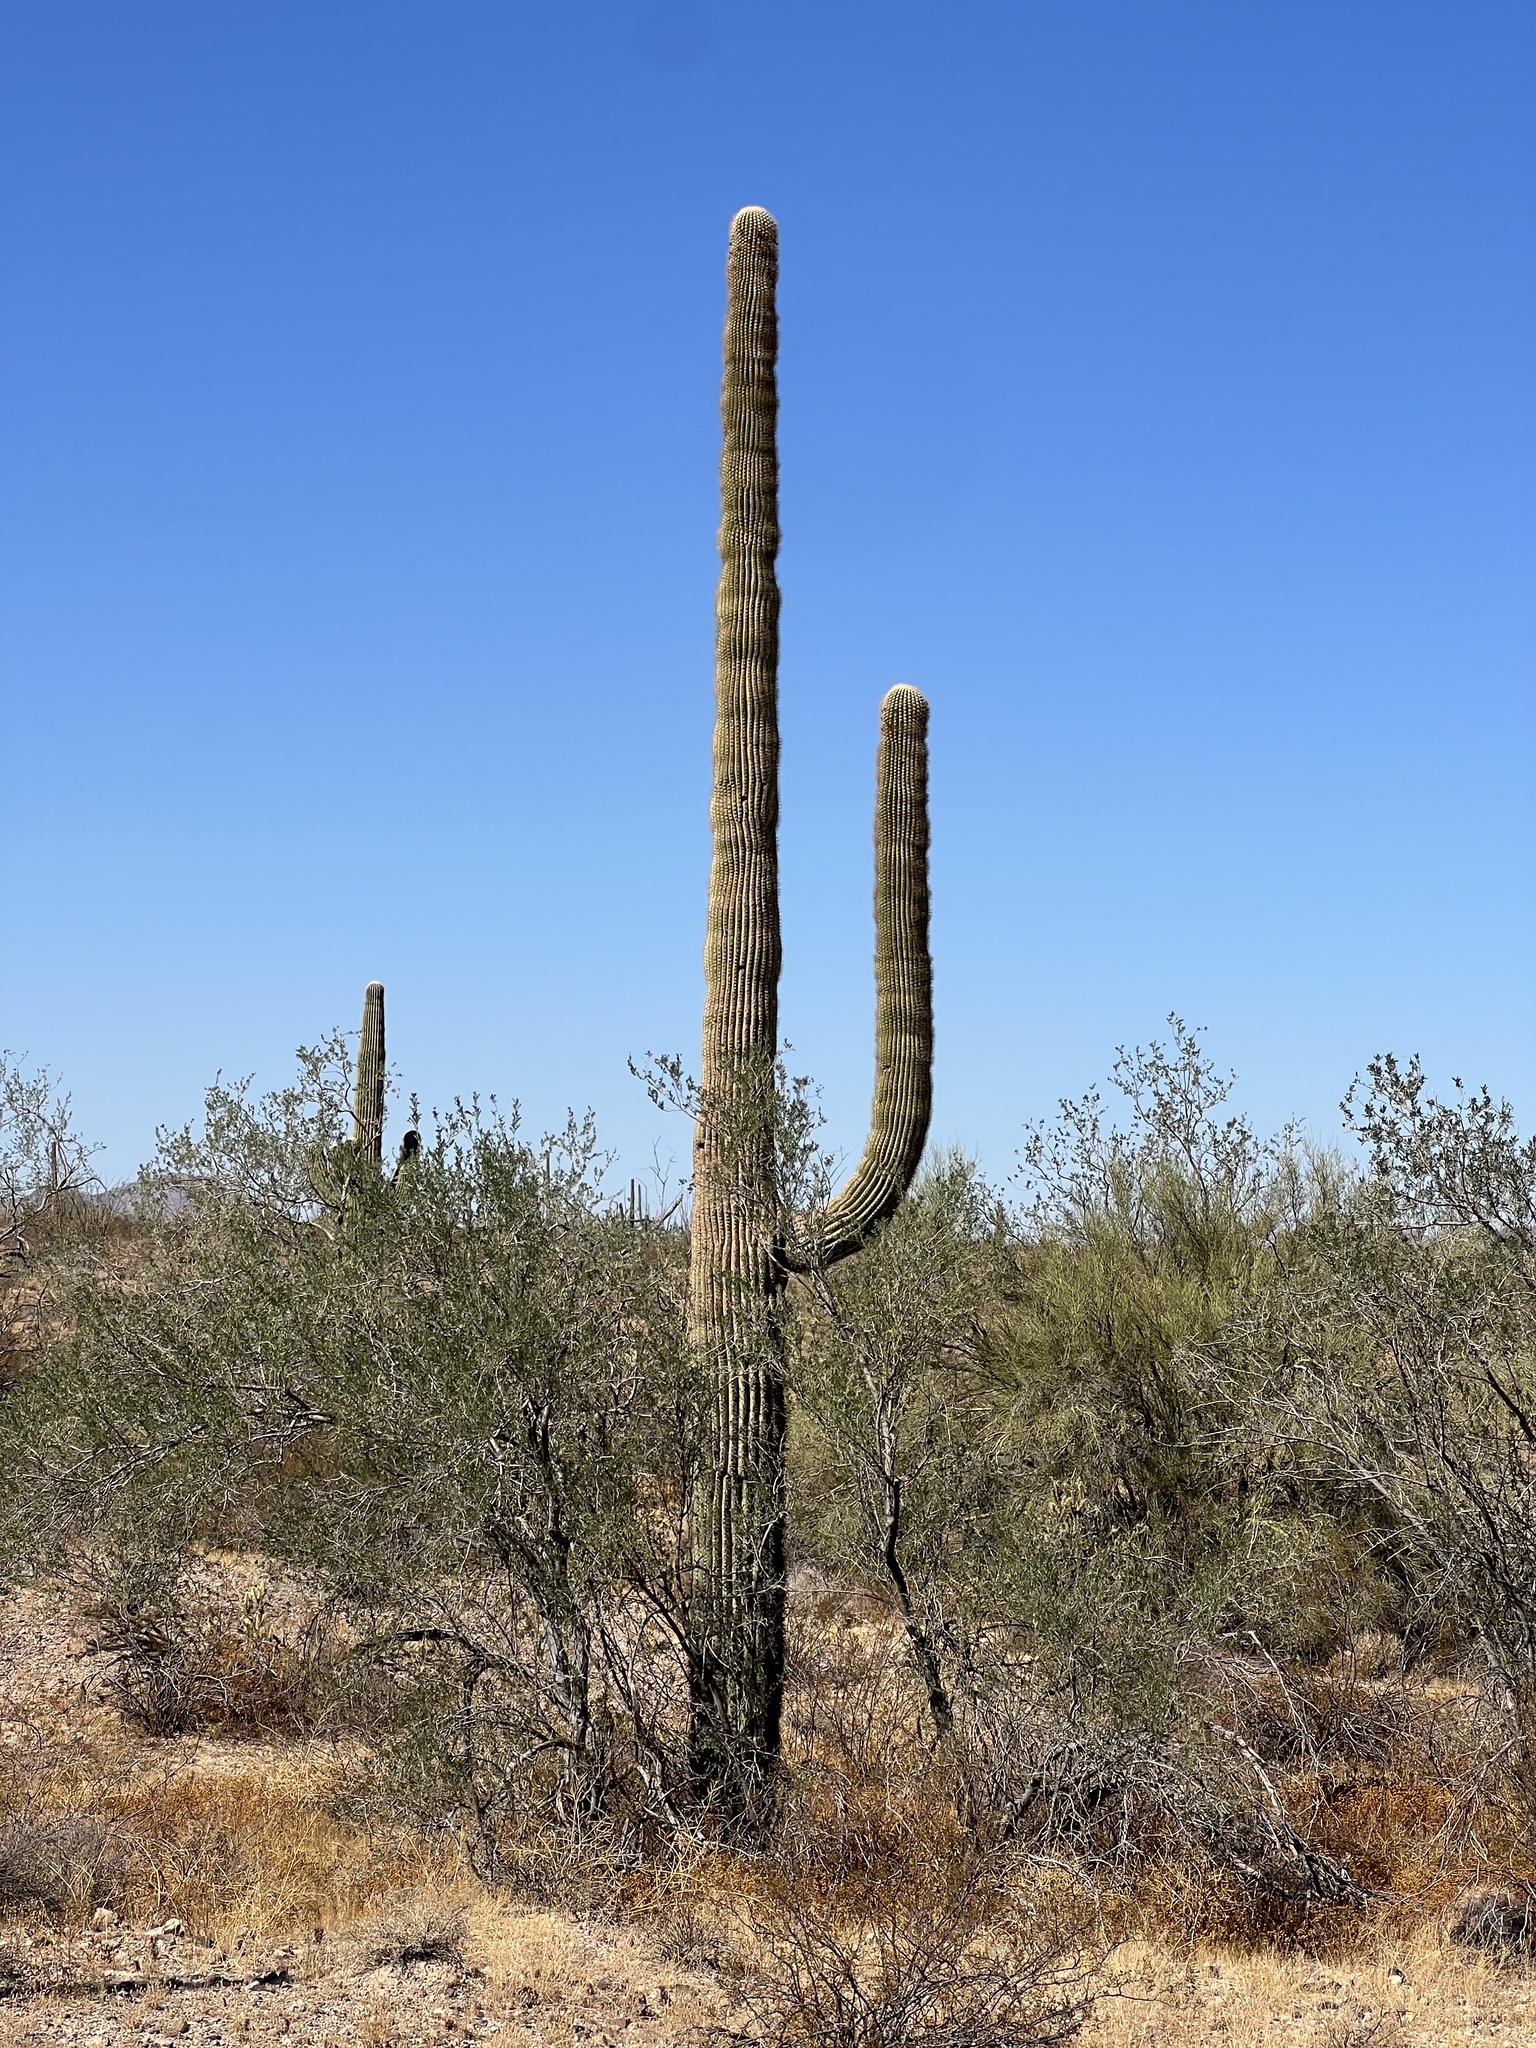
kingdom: Plantae
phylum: Tracheophyta
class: Magnoliopsida
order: Caryophyllales
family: Cactaceae
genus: Carnegiea
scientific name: Carnegiea gigantea
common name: Saguaro
